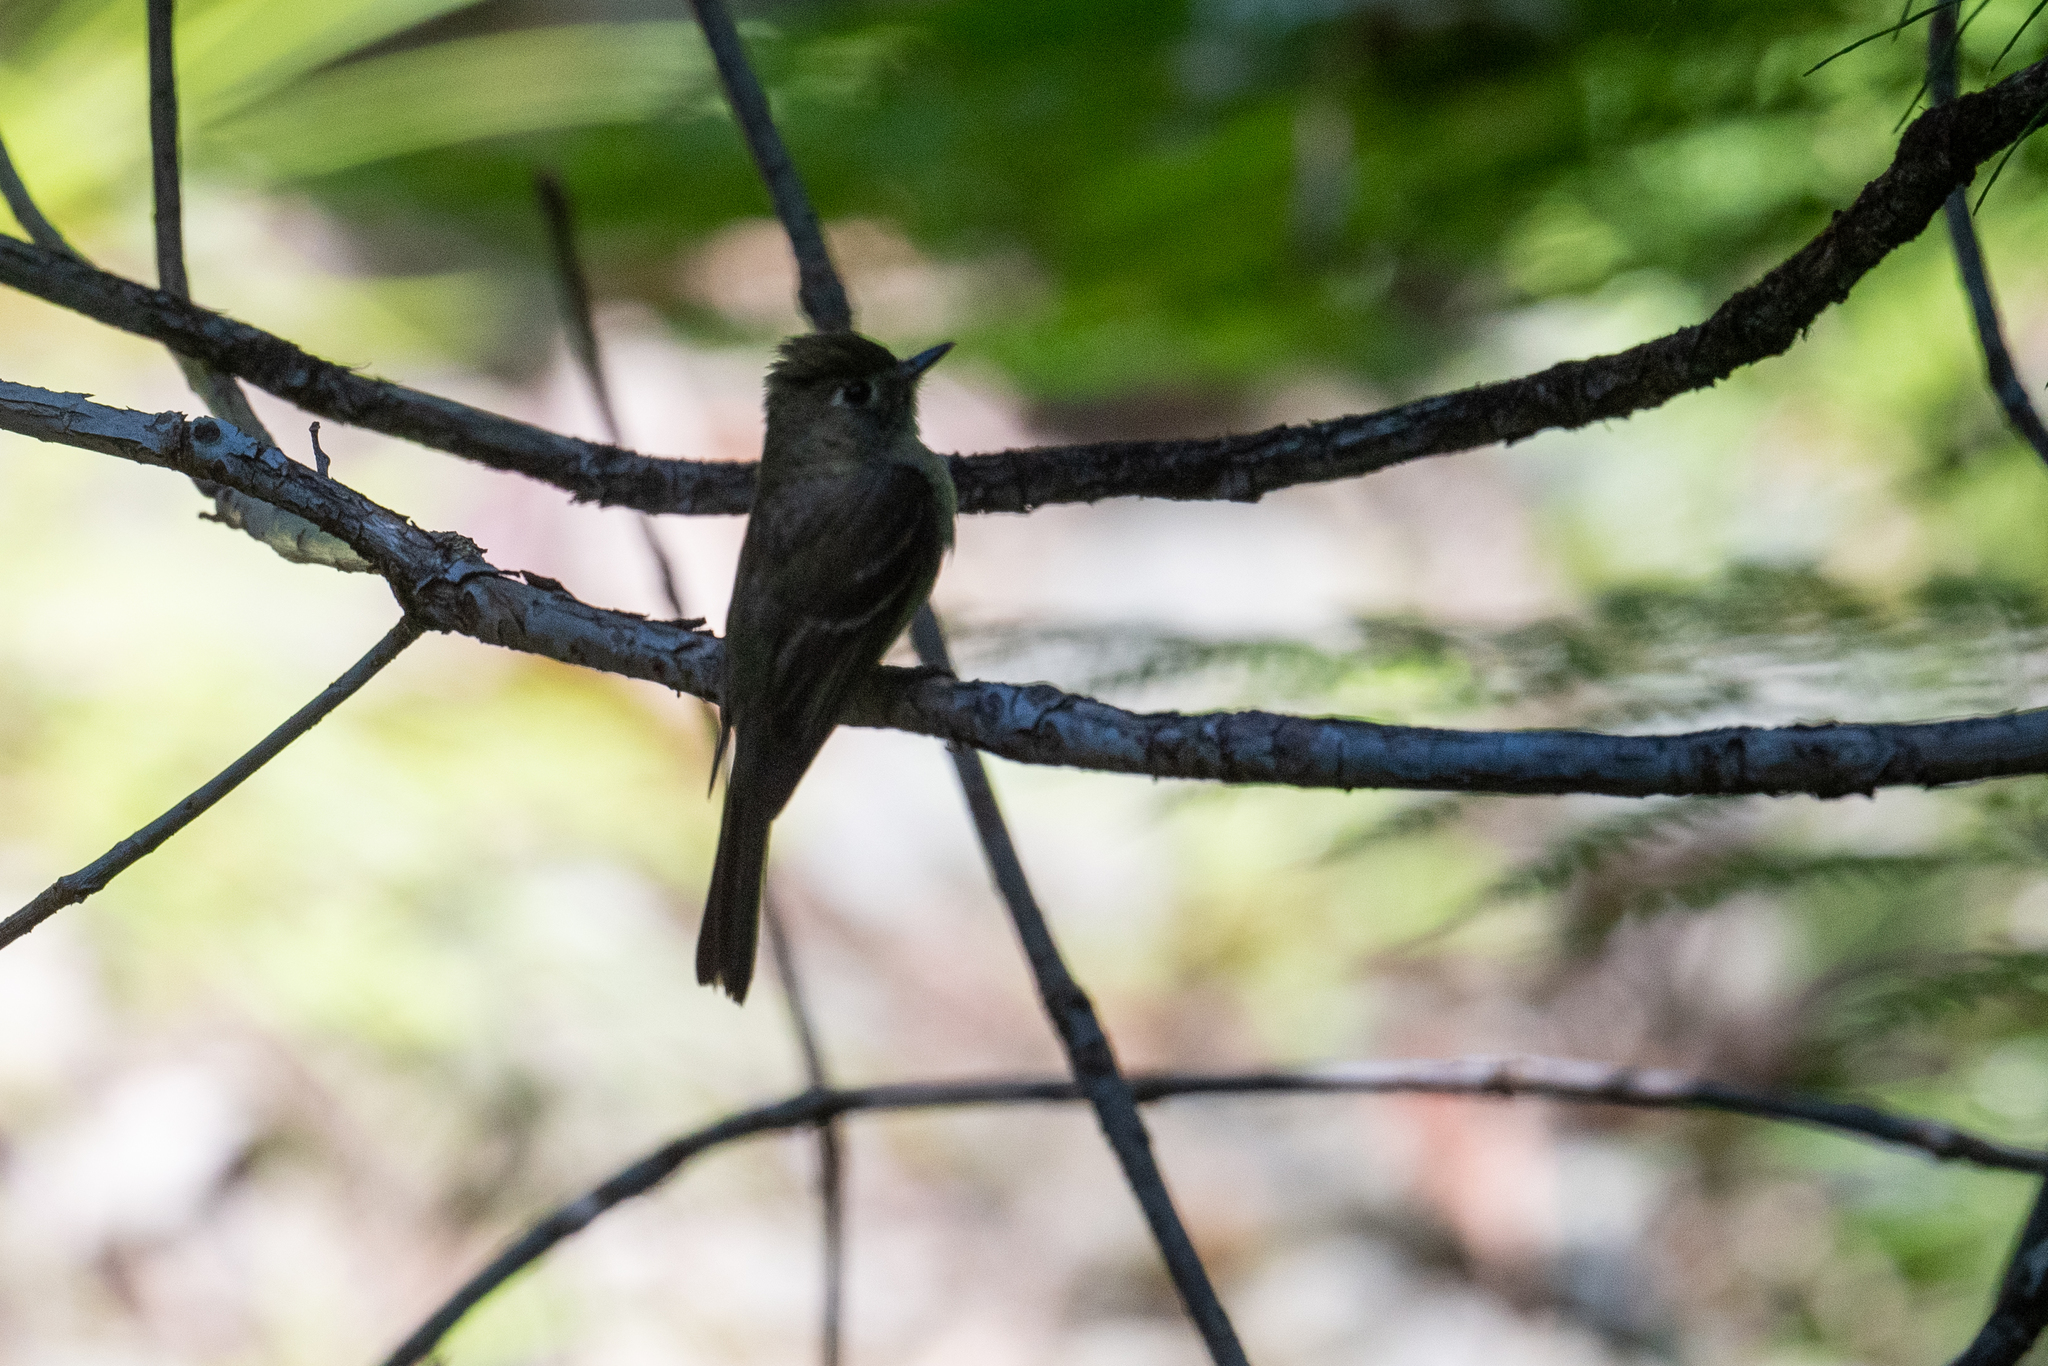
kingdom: Animalia
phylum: Chordata
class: Aves
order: Passeriformes
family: Tyrannidae
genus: Empidonax
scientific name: Empidonax difficilis
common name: Pacific-slope flycatcher
